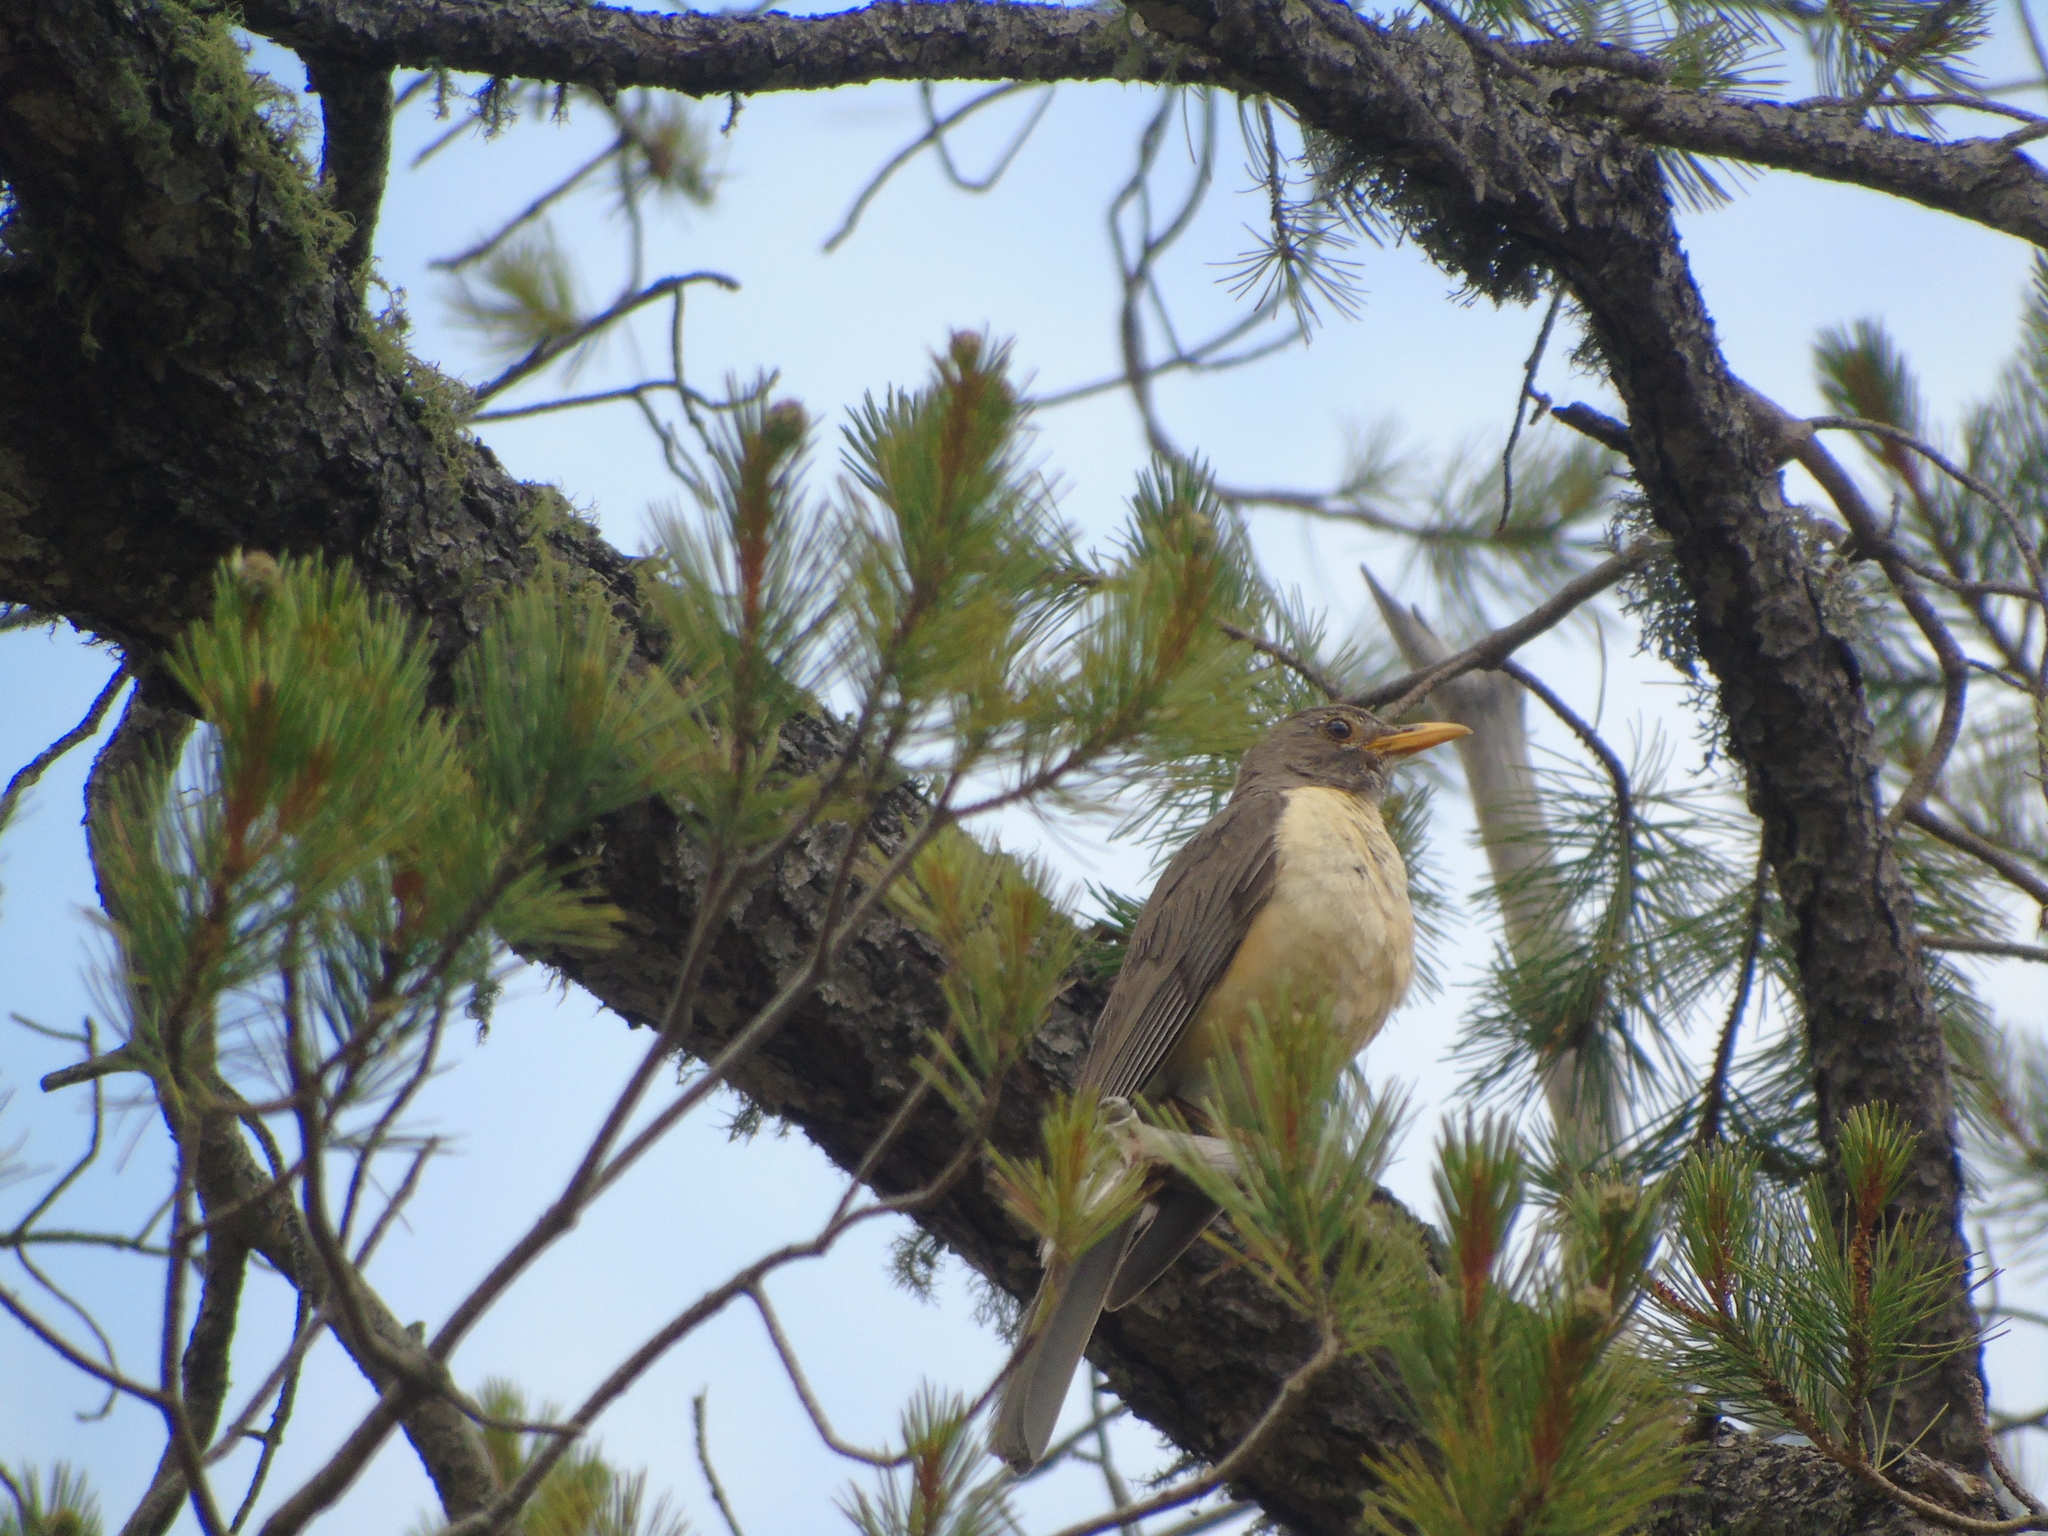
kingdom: Animalia
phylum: Chordata
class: Aves
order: Passeriformes
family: Turdidae
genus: Turdus
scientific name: Turdus migratorius
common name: American robin
